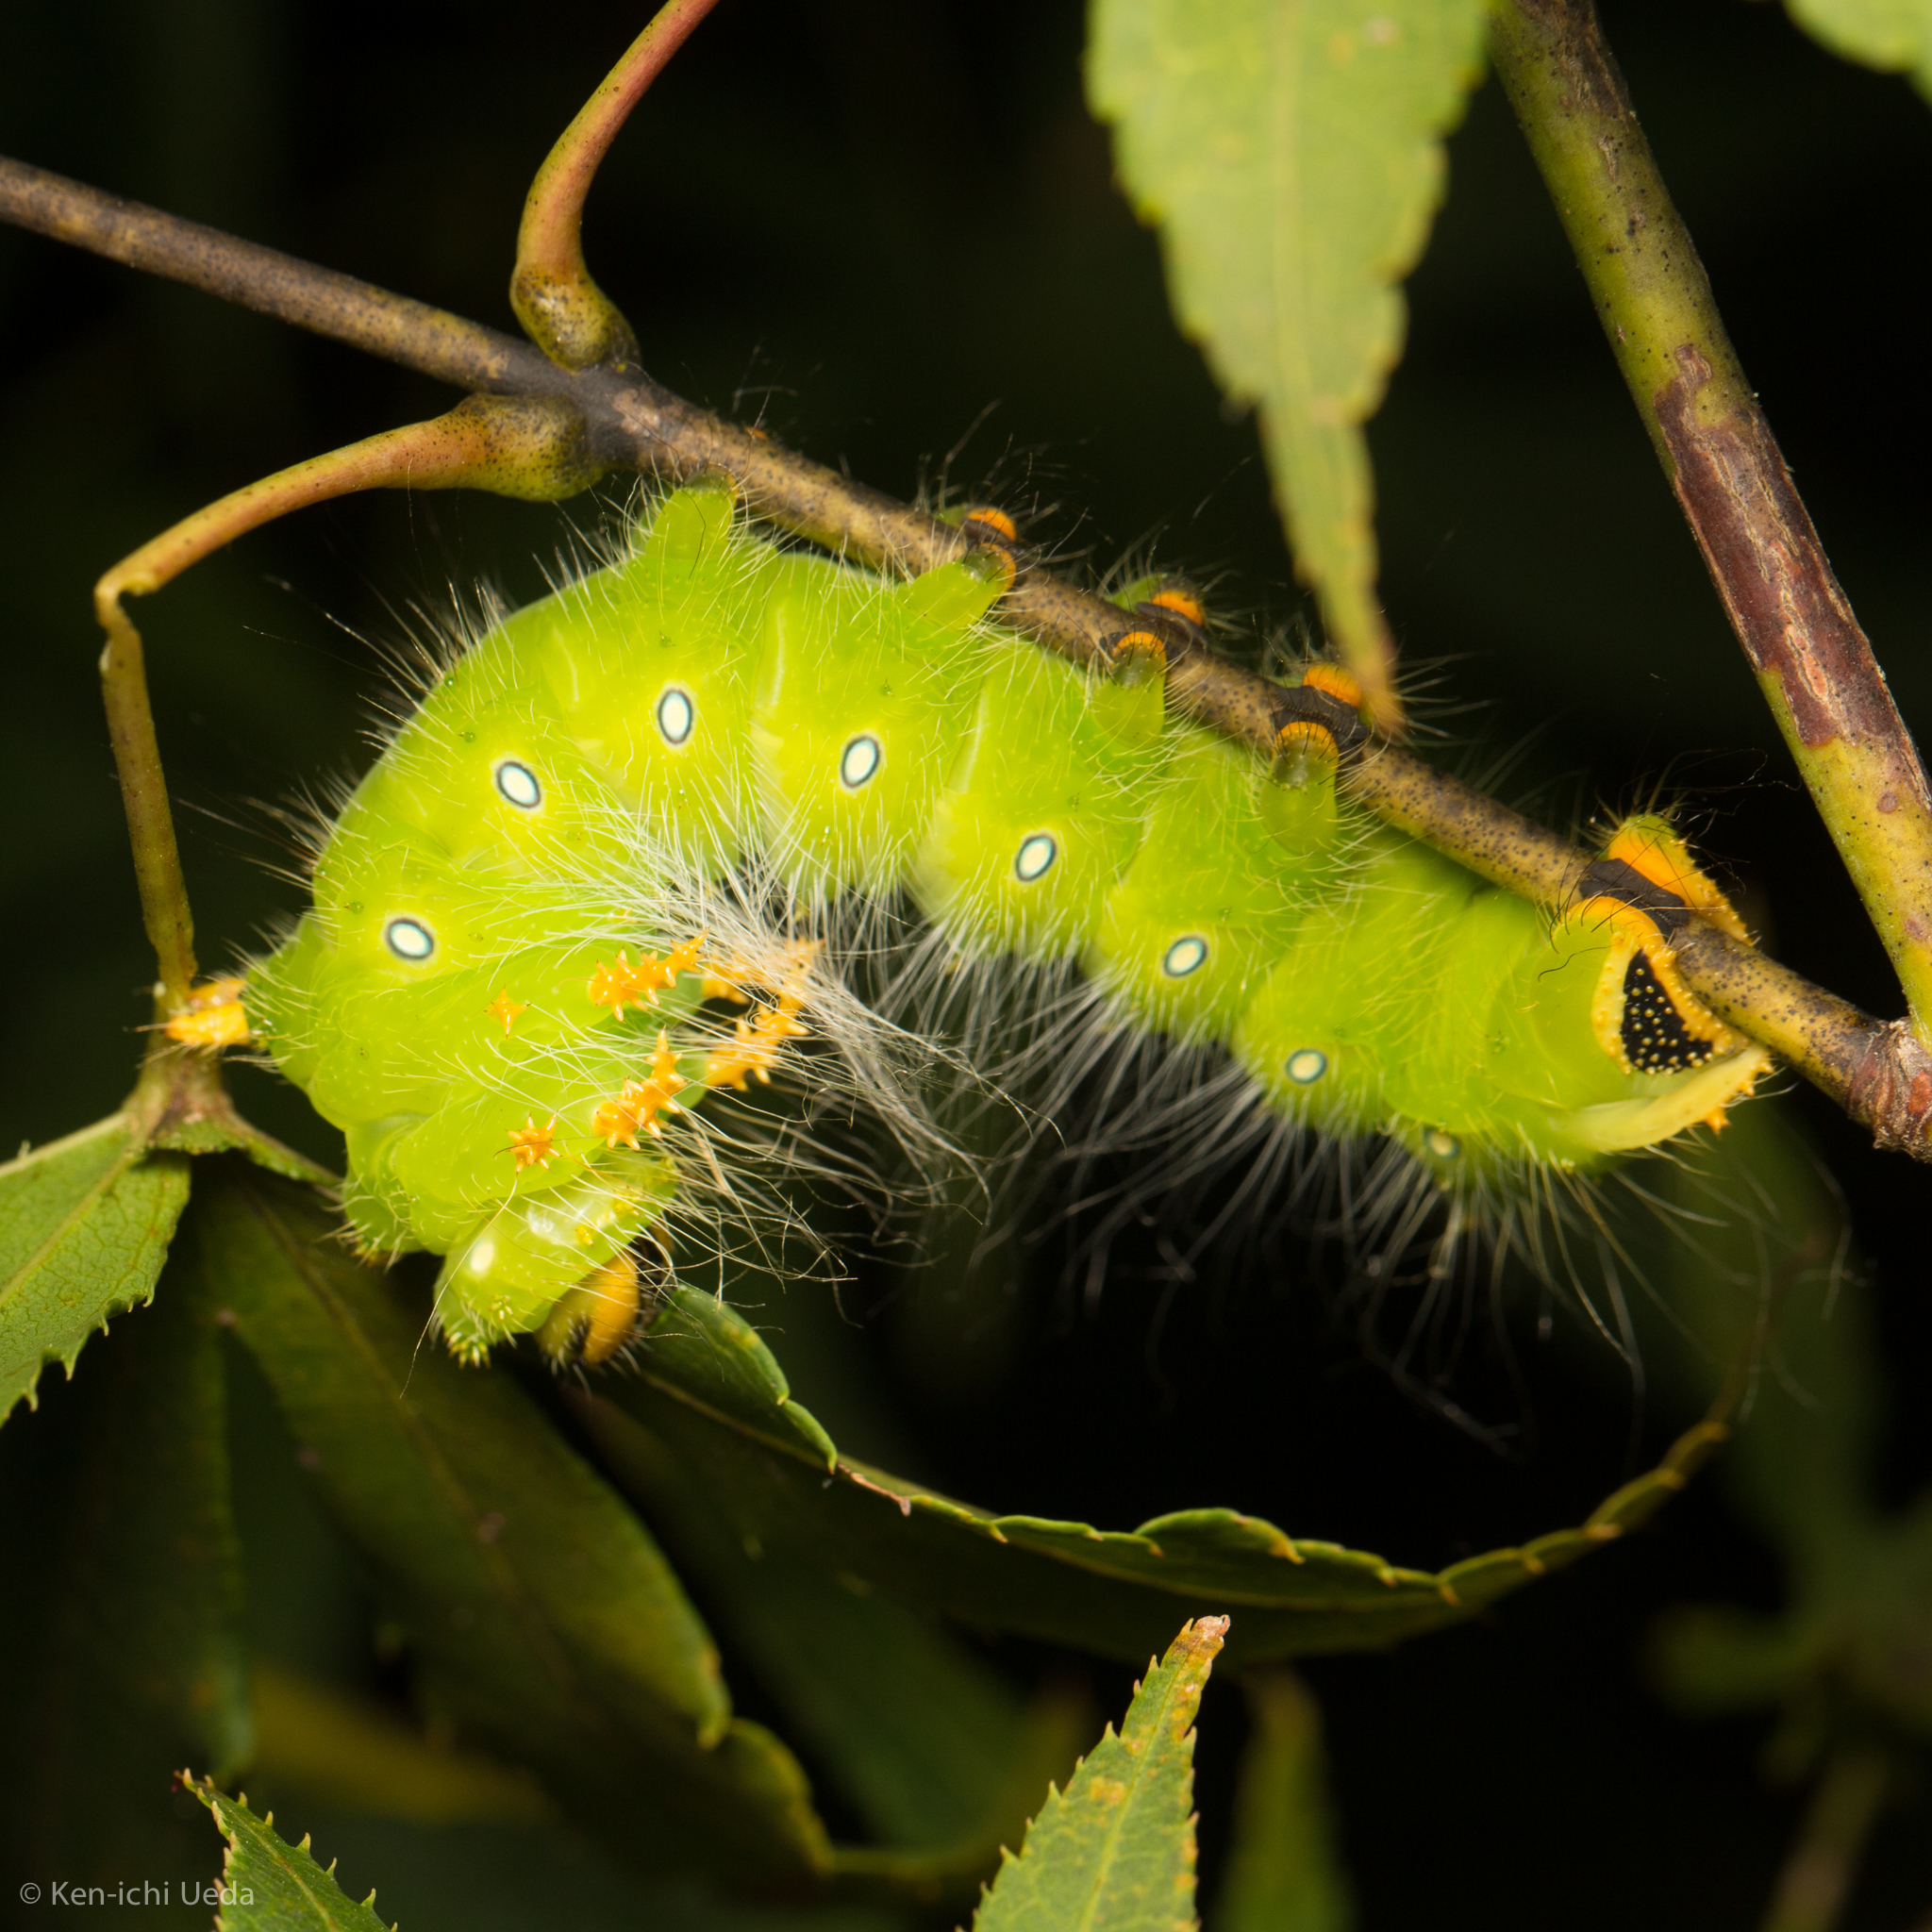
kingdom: Animalia
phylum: Arthropoda
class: Insecta
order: Lepidoptera
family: Saturniidae
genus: Eacles
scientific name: Eacles imperialis
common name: Imperial moth
